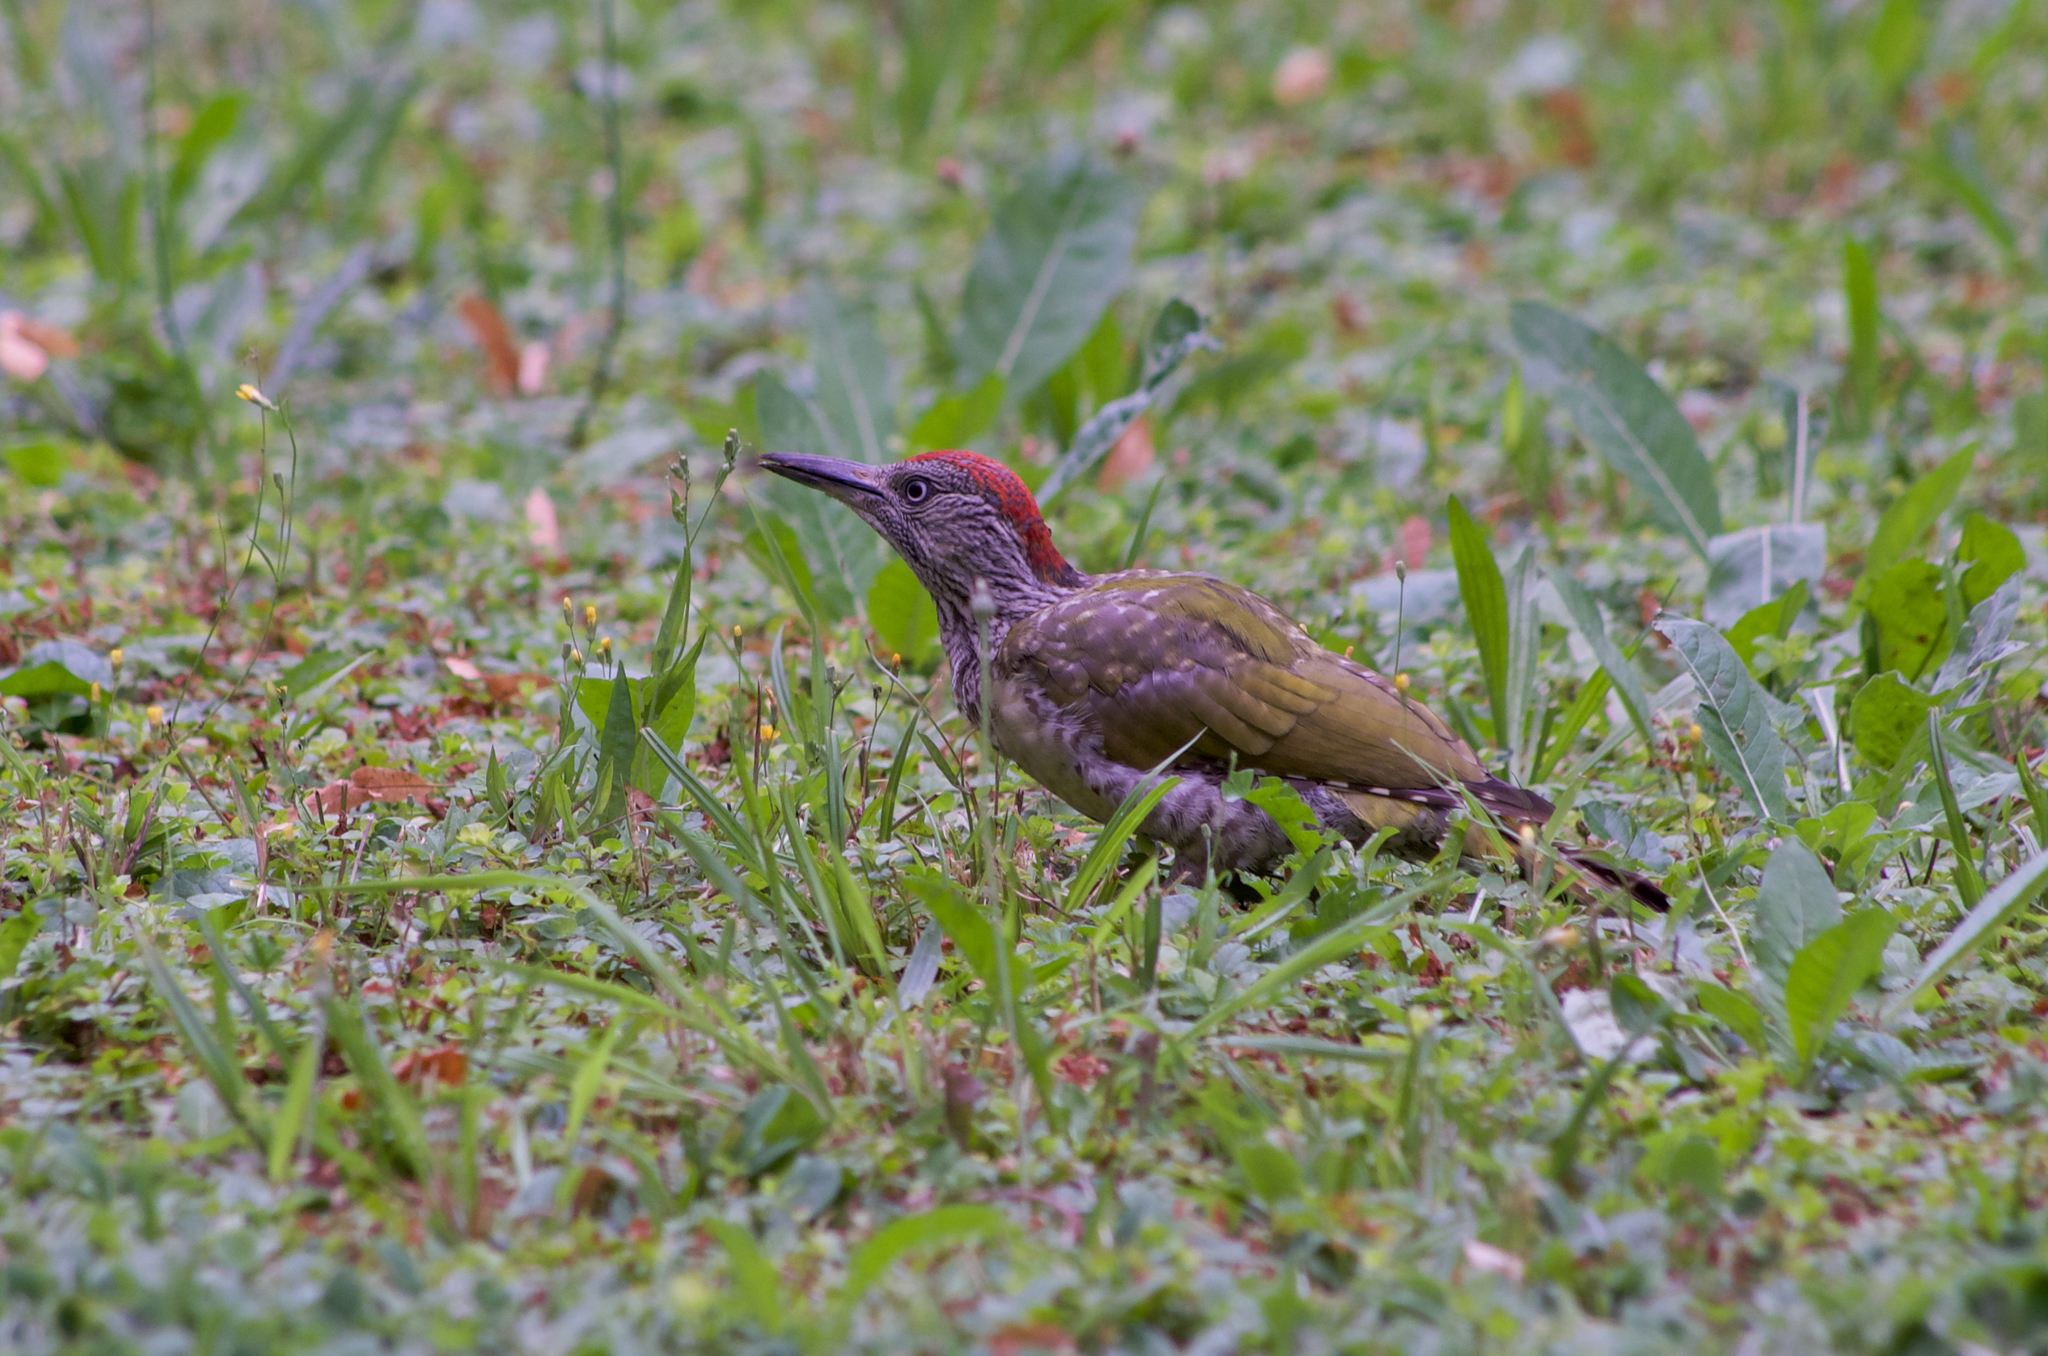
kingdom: Animalia
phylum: Chordata
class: Aves
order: Piciformes
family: Picidae
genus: Picus
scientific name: Picus viridis
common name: European green woodpecker
